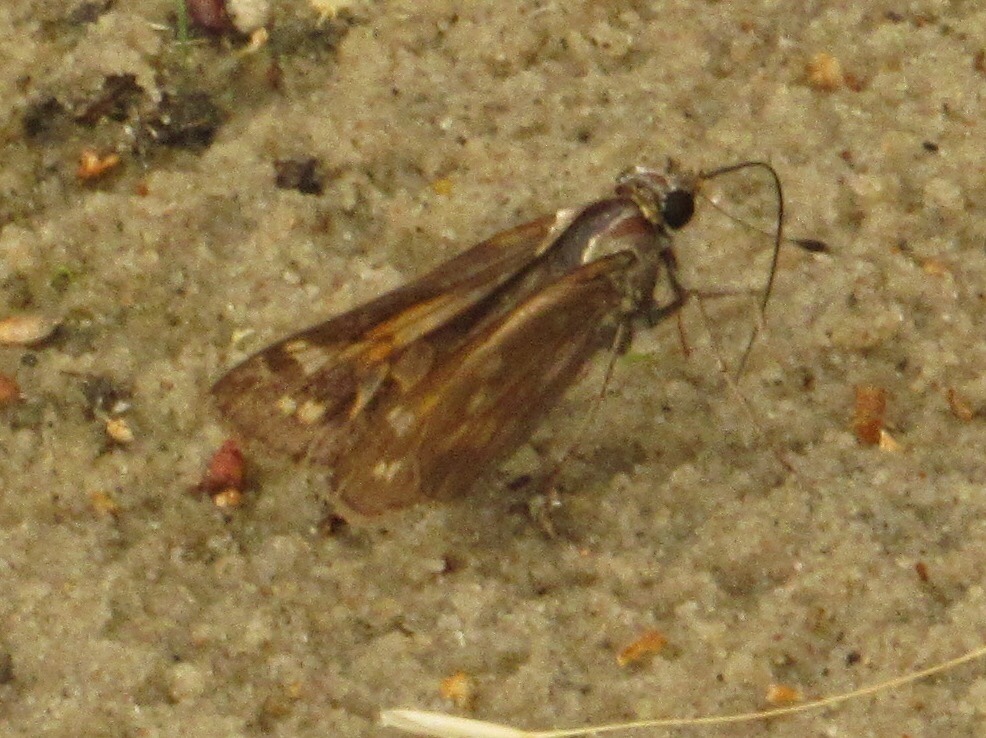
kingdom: Animalia
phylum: Arthropoda
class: Insecta
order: Lepidoptera
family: Hesperiidae
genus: Atalopedes
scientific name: Atalopedes
